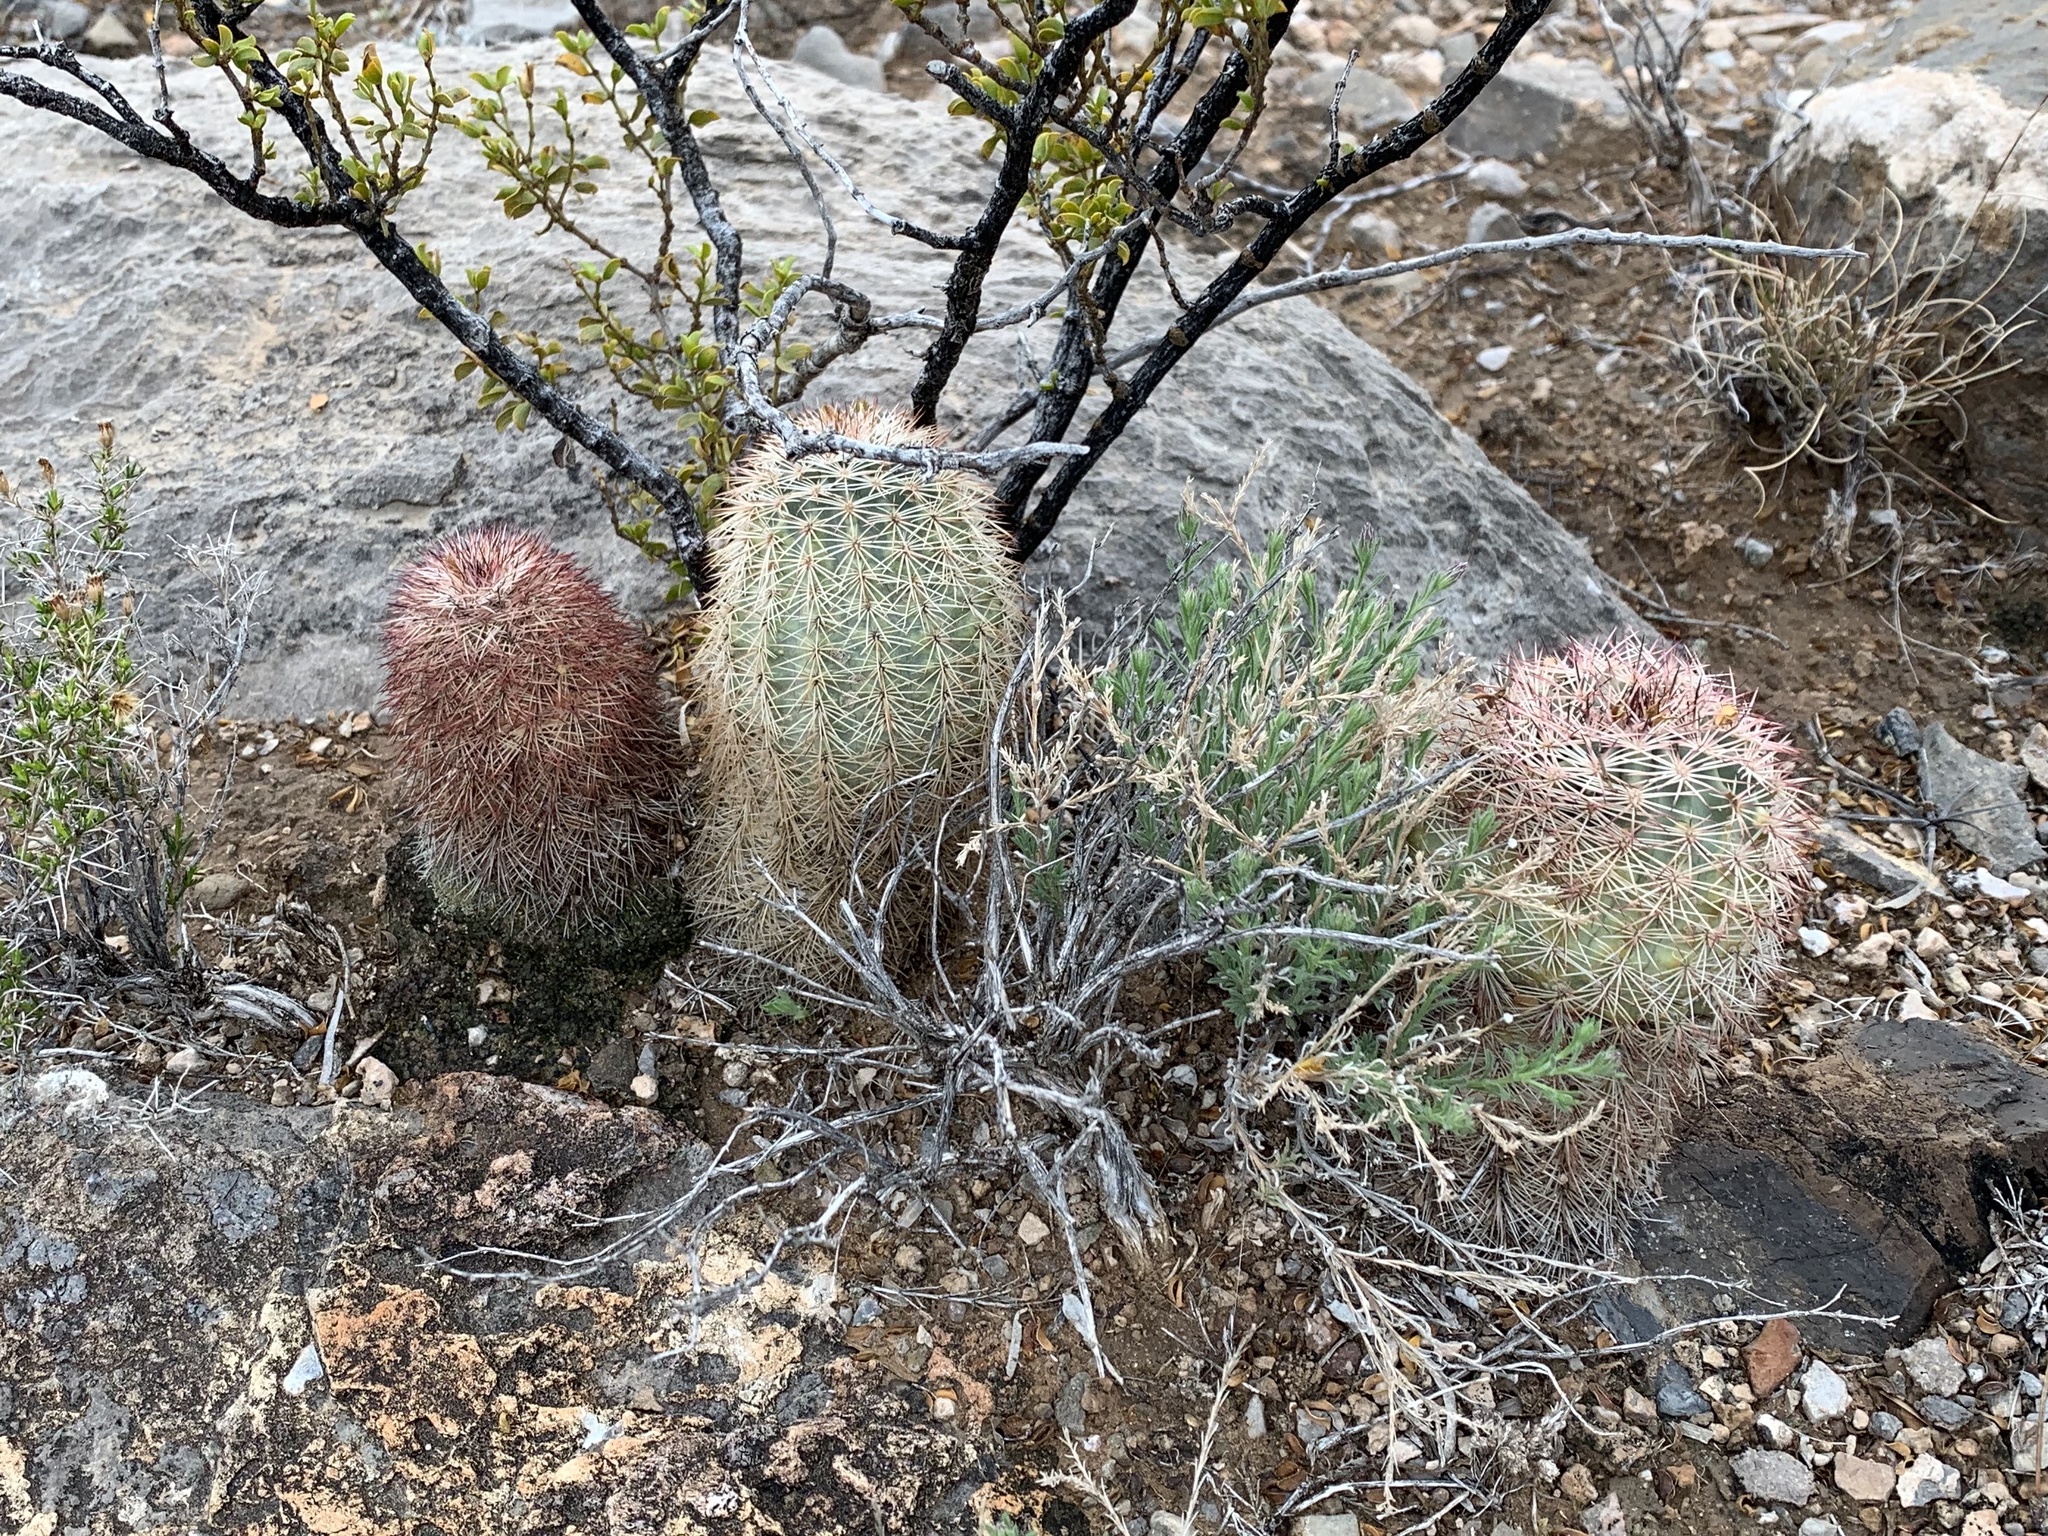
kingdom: Plantae
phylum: Tracheophyta
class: Magnoliopsida
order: Caryophyllales
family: Cactaceae
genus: Echinocereus
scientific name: Echinocereus dasyacanthus
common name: Spiny hedgehog cactus
